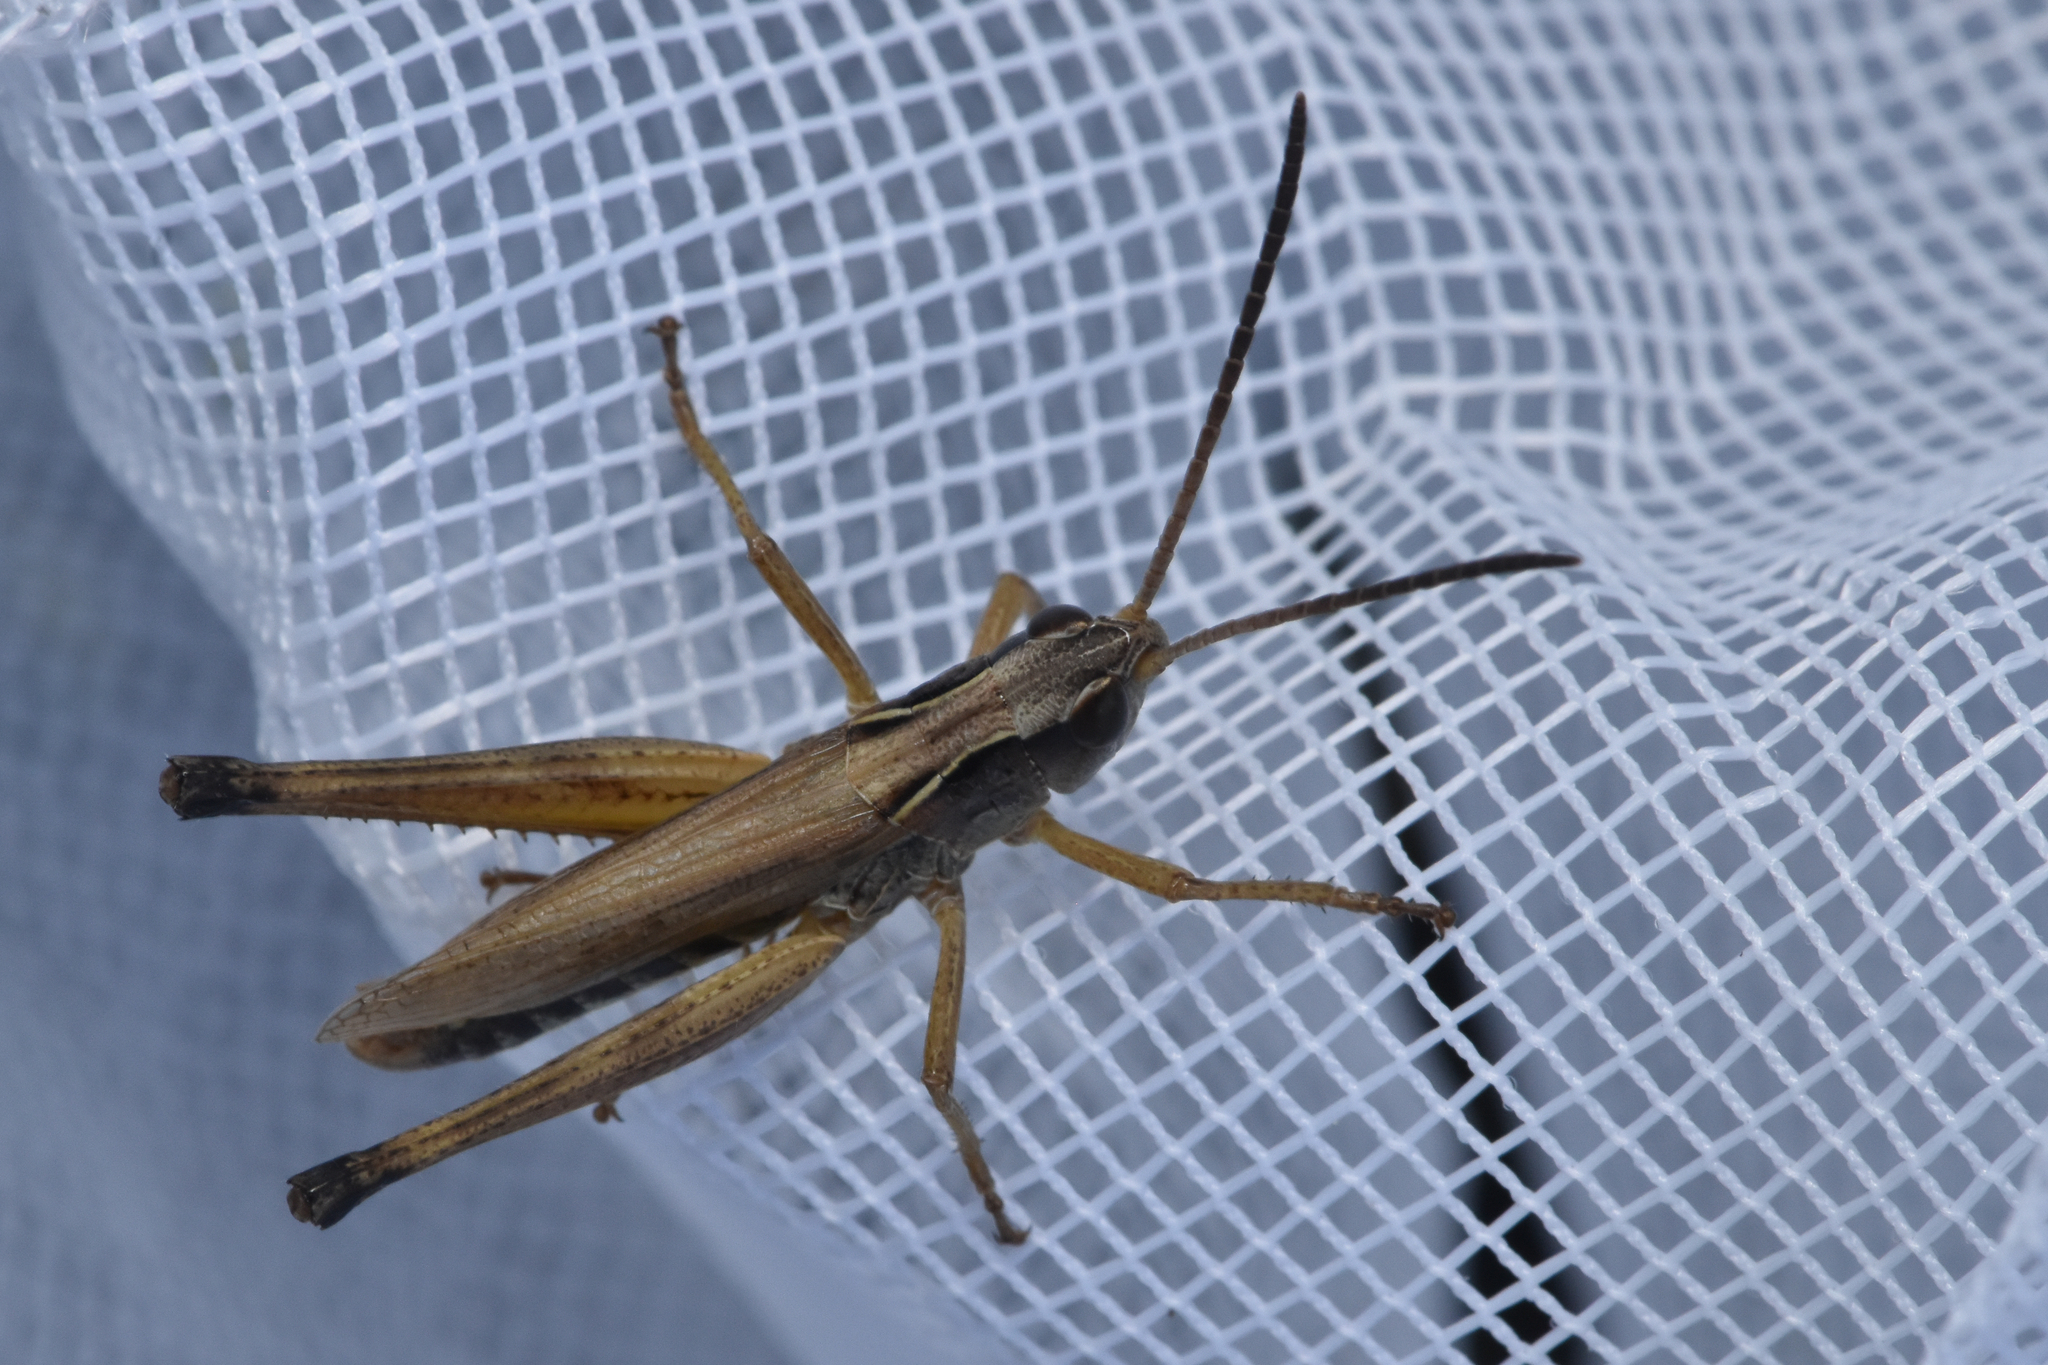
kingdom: Animalia
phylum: Arthropoda
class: Insecta
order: Orthoptera
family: Acrididae
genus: Pseudochorthippus
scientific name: Pseudochorthippus curtipennis
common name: Marsh meadow grasshopper
